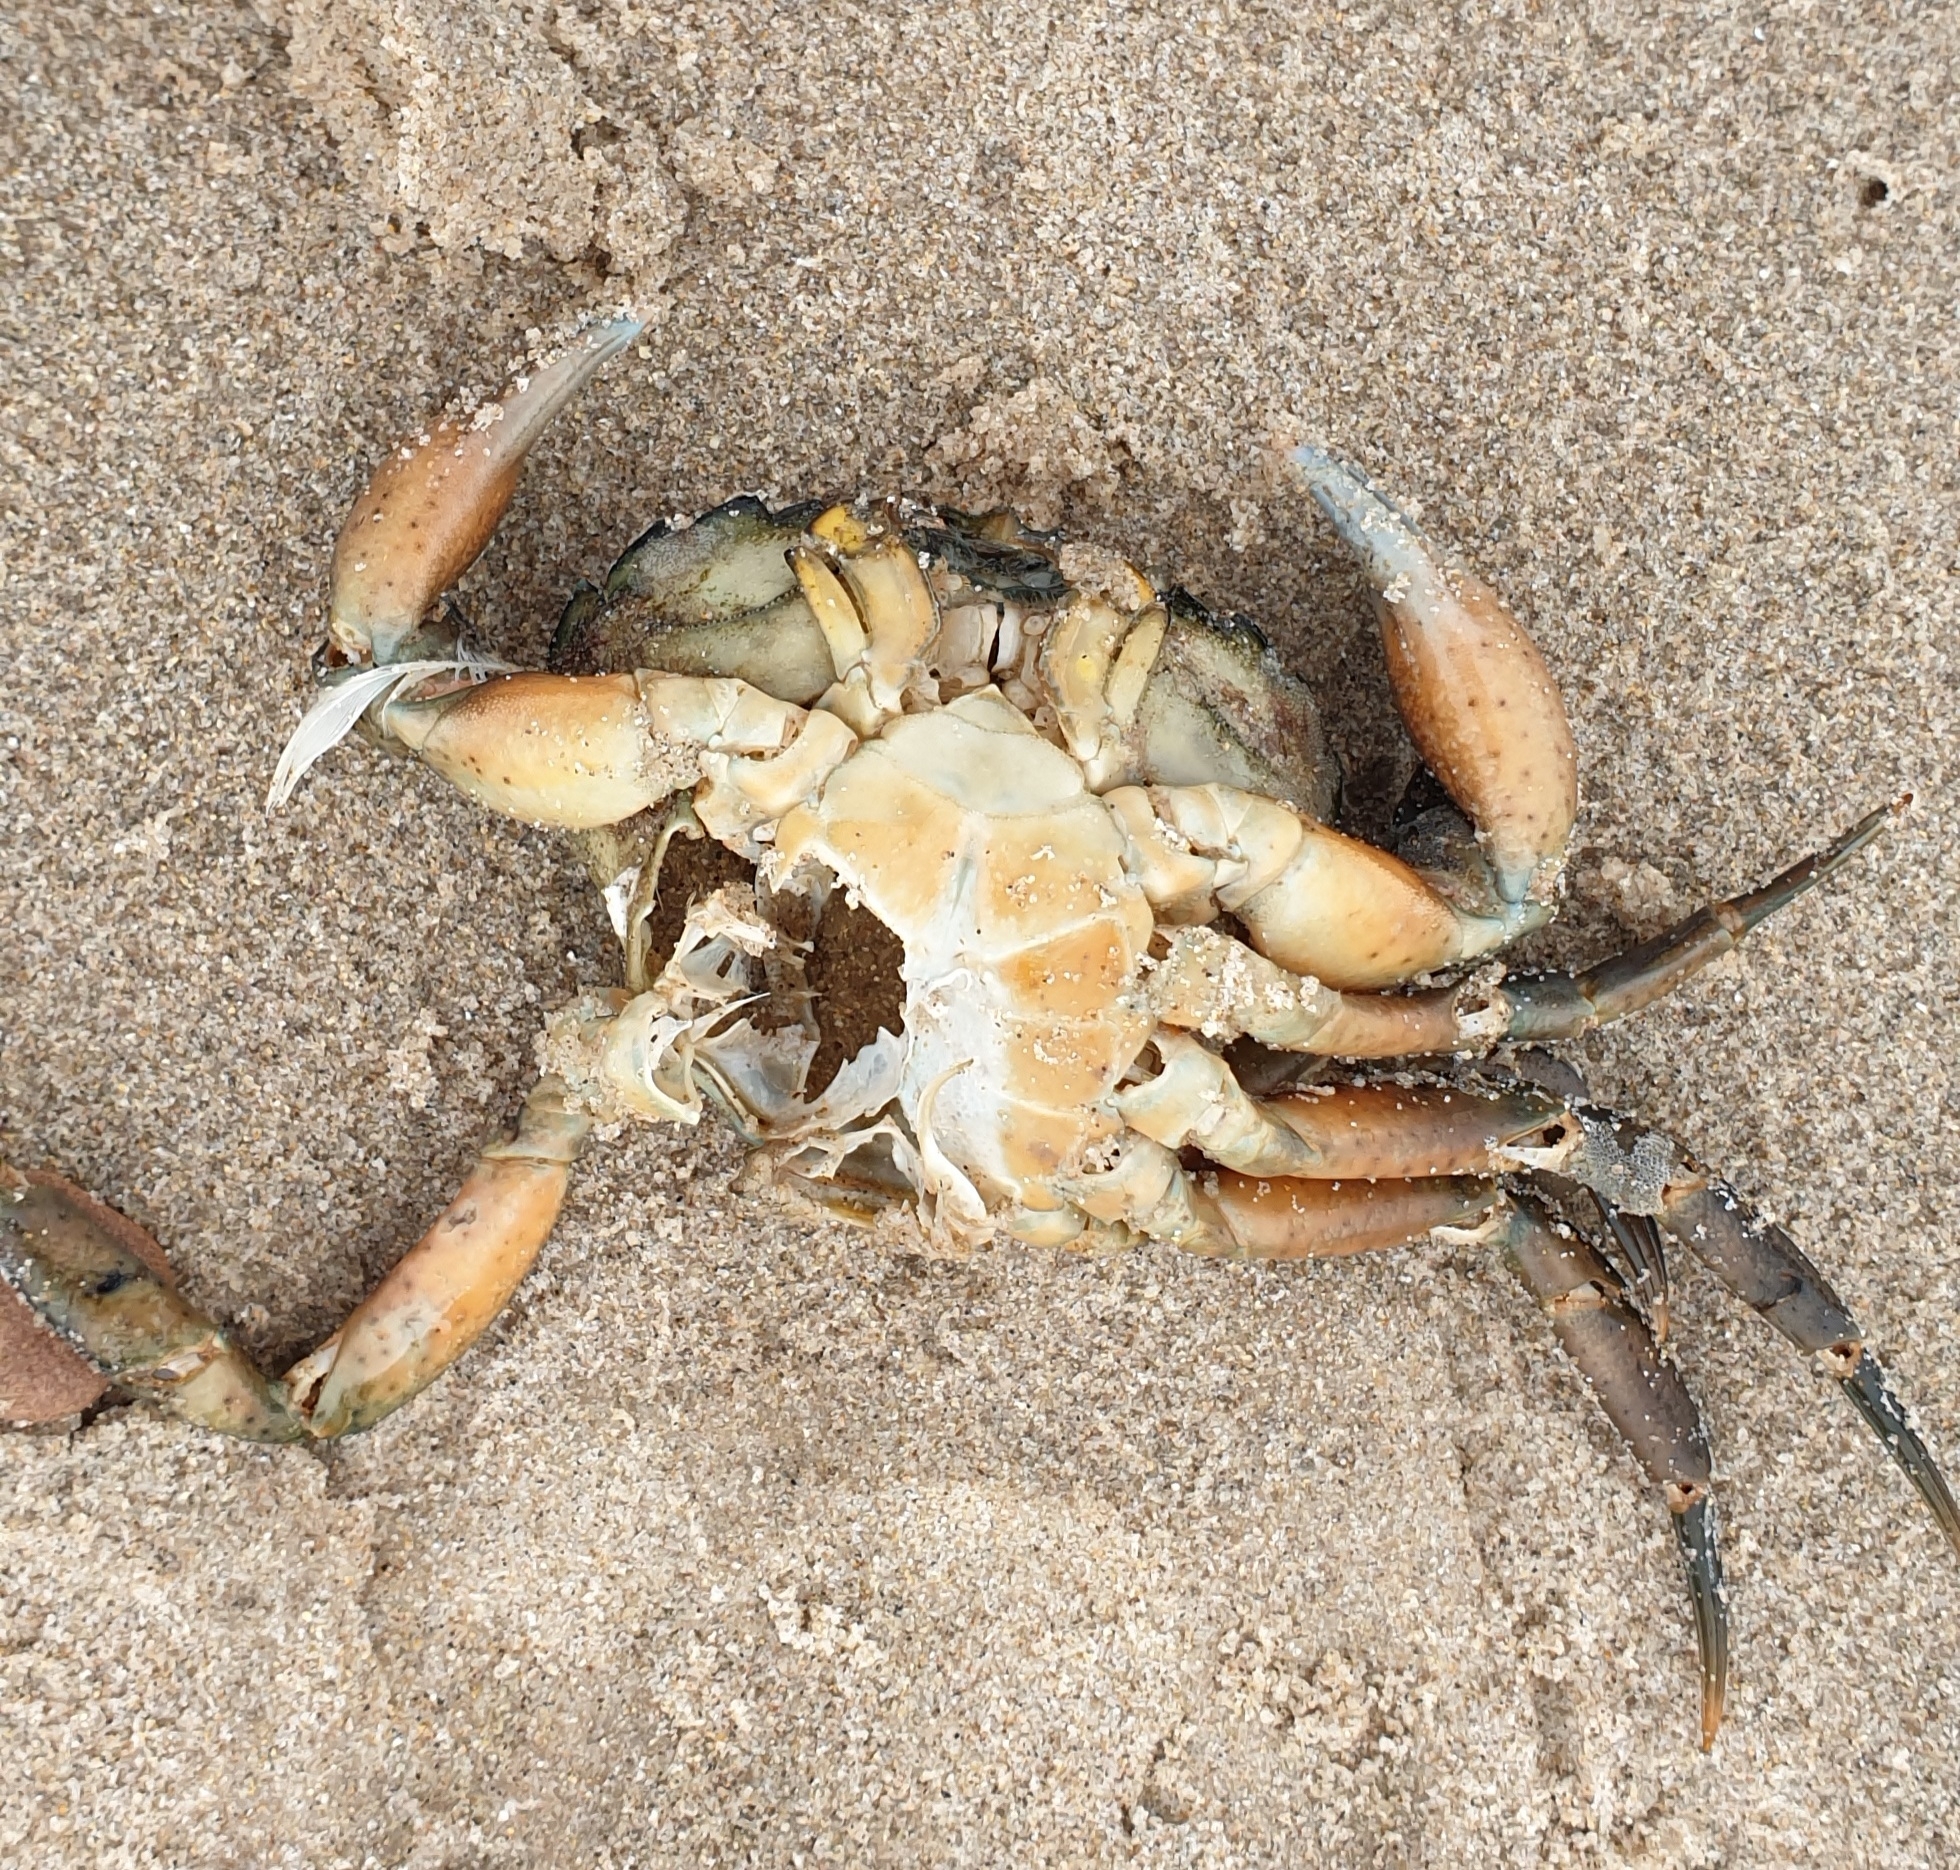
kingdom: Animalia
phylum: Arthropoda
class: Malacostraca
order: Decapoda
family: Carcinidae
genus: Carcinus
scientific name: Carcinus maenas
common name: European green crab
